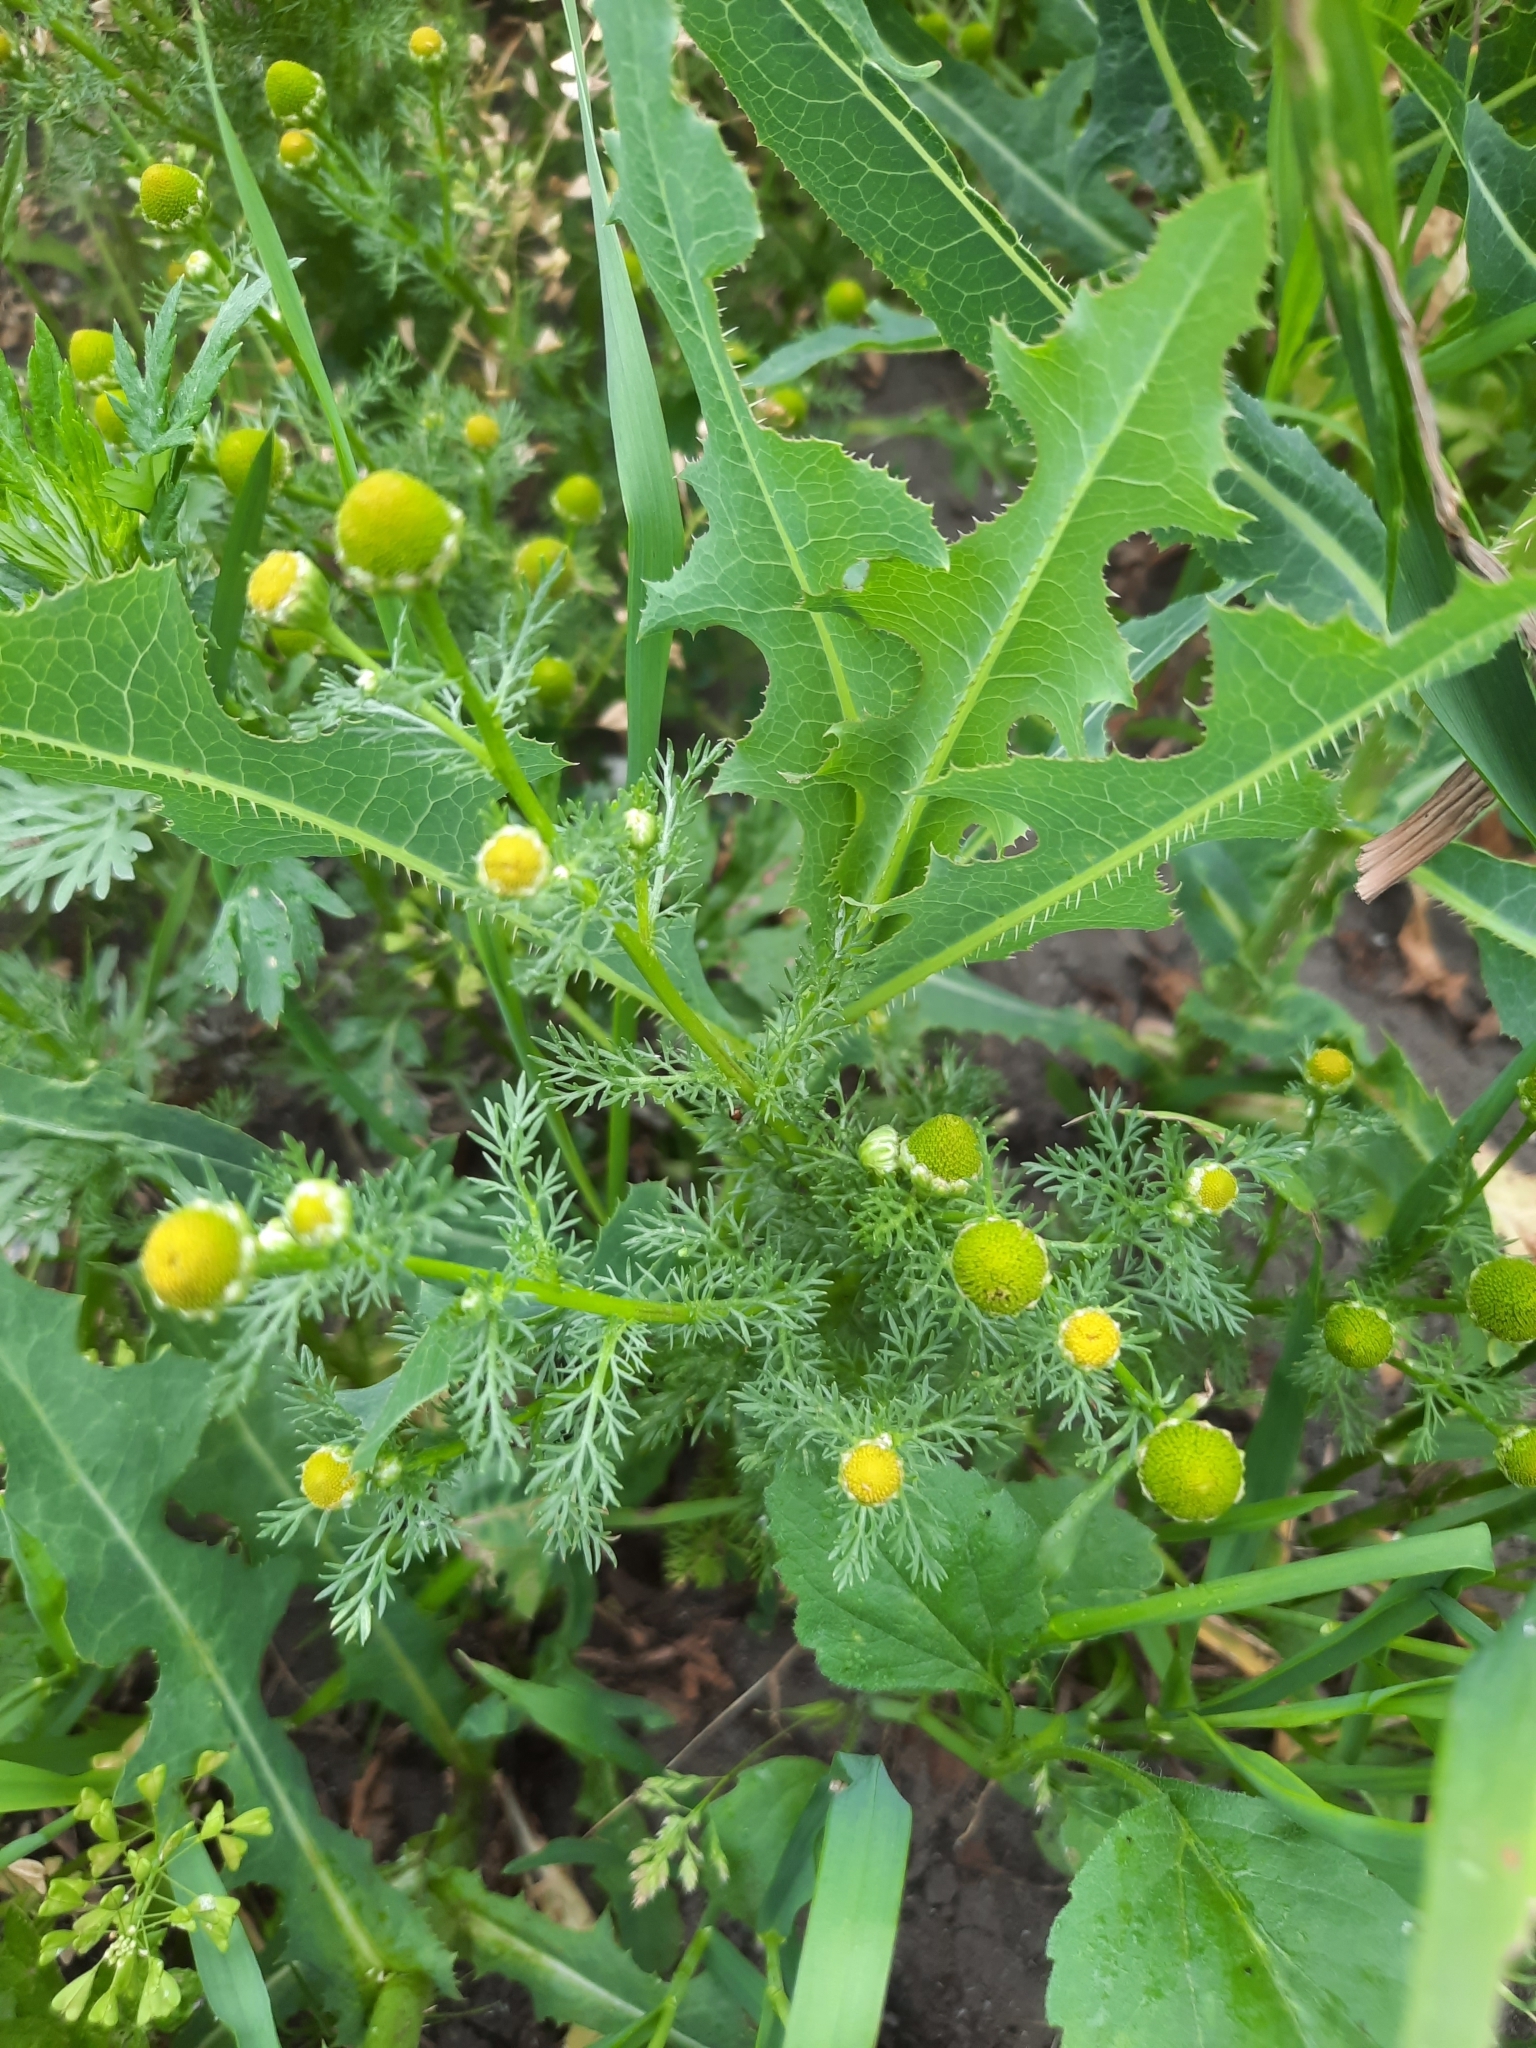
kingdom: Plantae
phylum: Tracheophyta
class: Magnoliopsida
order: Asterales
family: Asteraceae
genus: Matricaria
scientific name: Matricaria discoidea
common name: Disc mayweed
